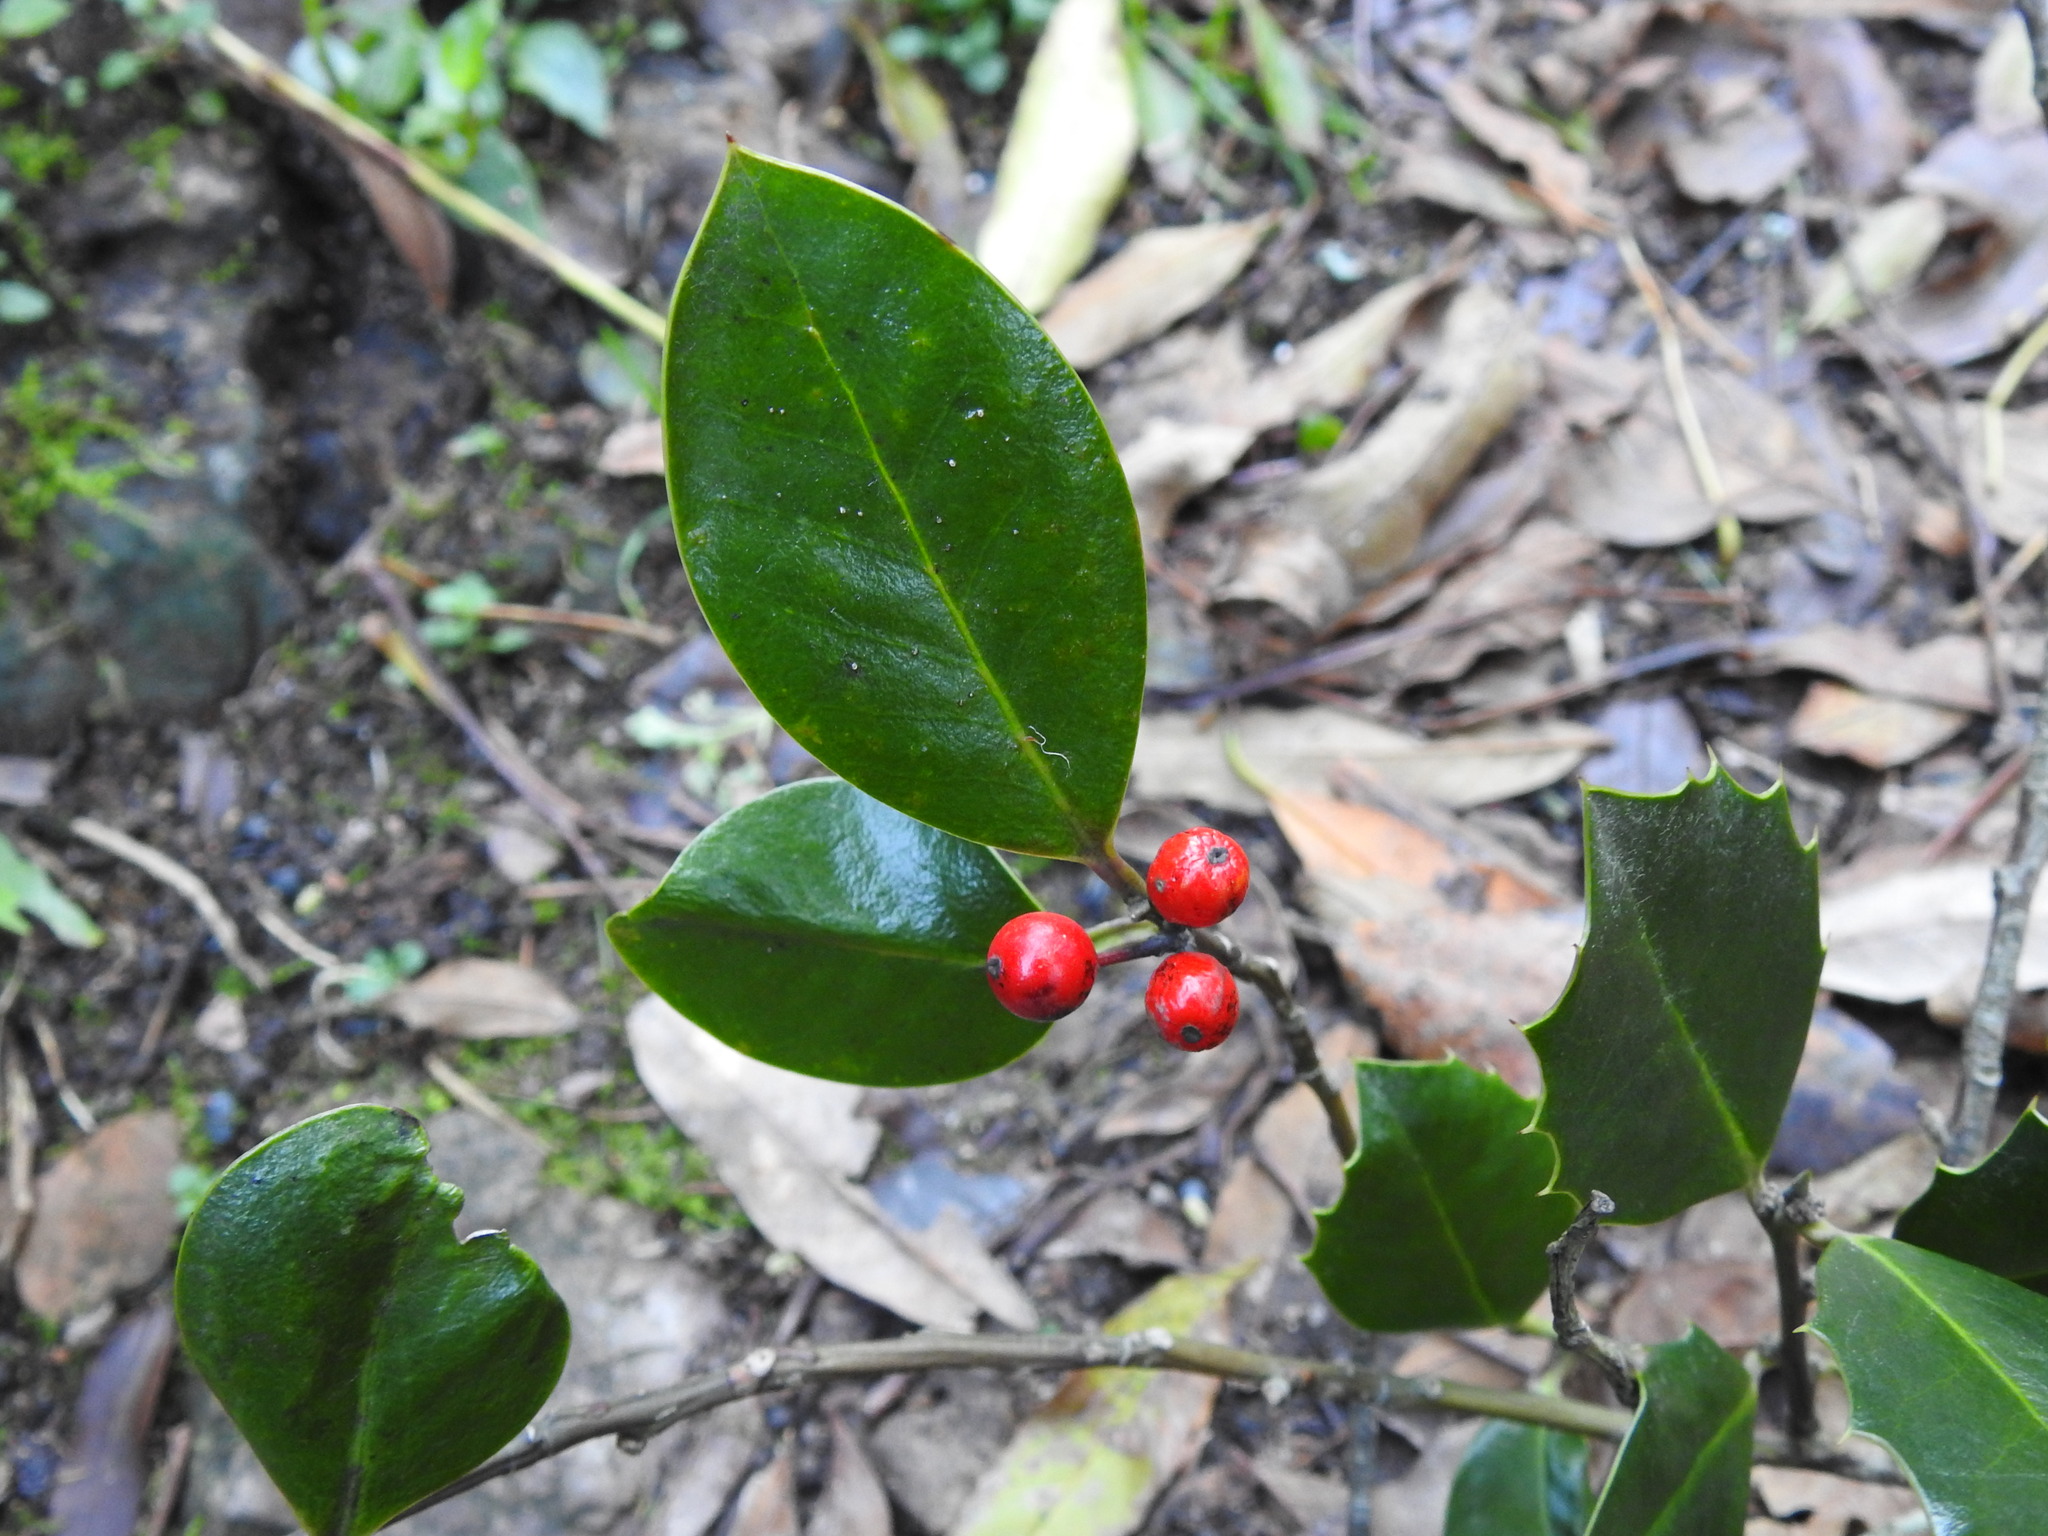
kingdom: Plantae
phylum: Tracheophyta
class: Magnoliopsida
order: Aquifoliales
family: Aquifoliaceae
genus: Ilex
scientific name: Ilex aquifolium
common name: English holly
